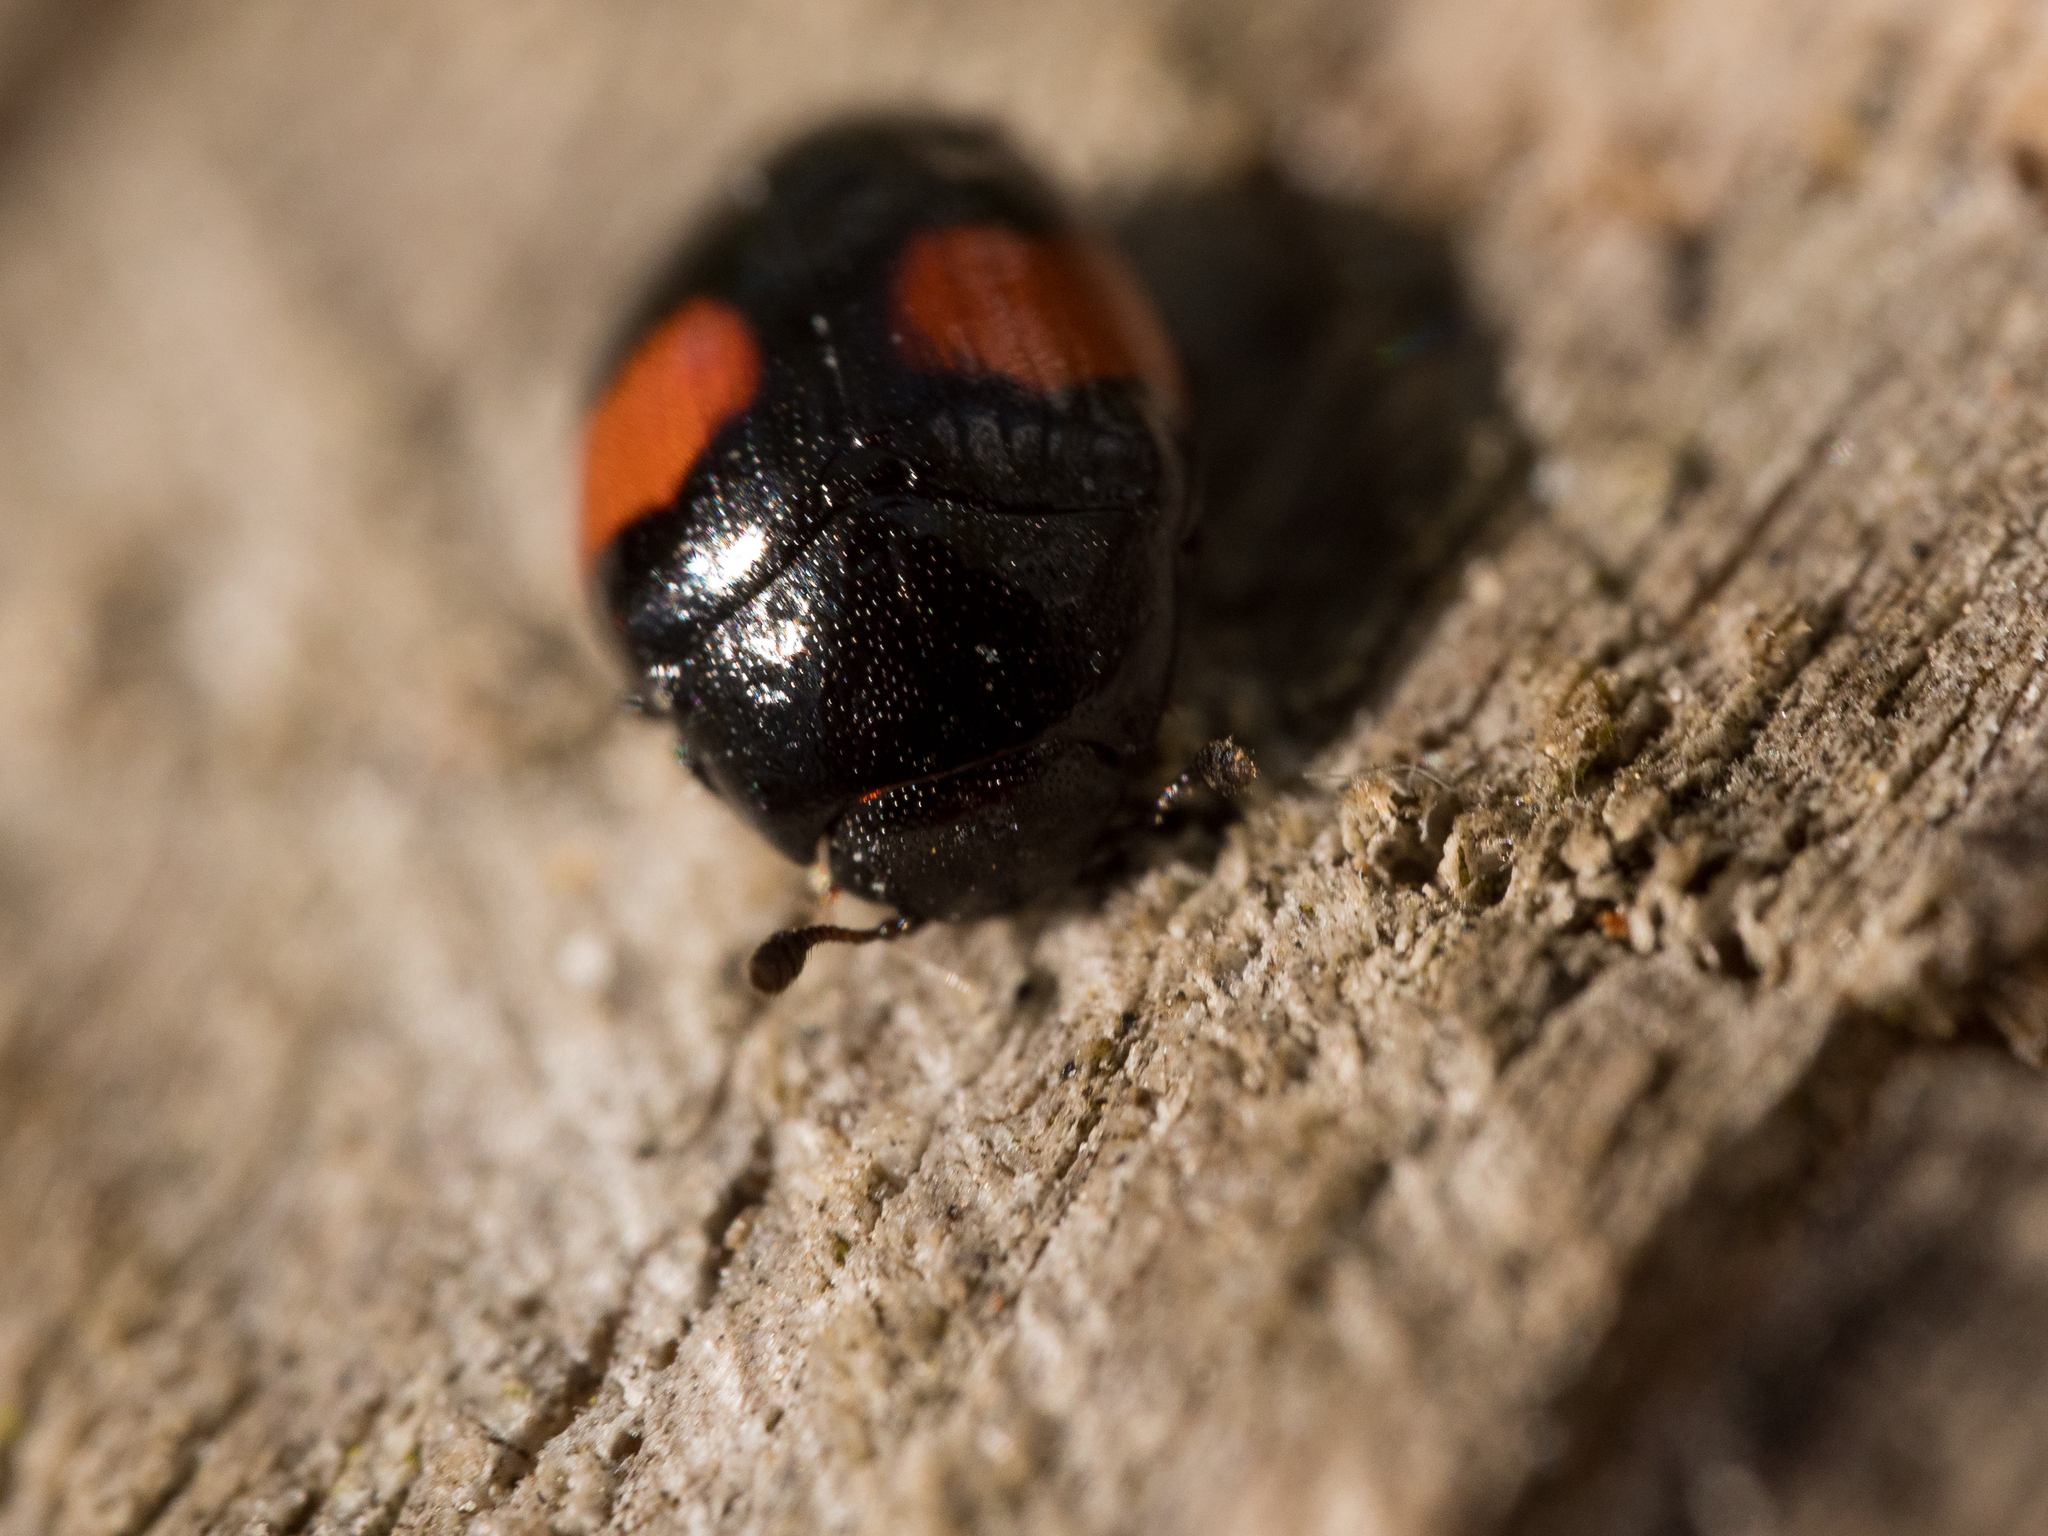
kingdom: Animalia
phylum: Arthropoda
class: Insecta
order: Coleoptera
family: Erotylidae
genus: Tritoma
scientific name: Tritoma subbasalis
